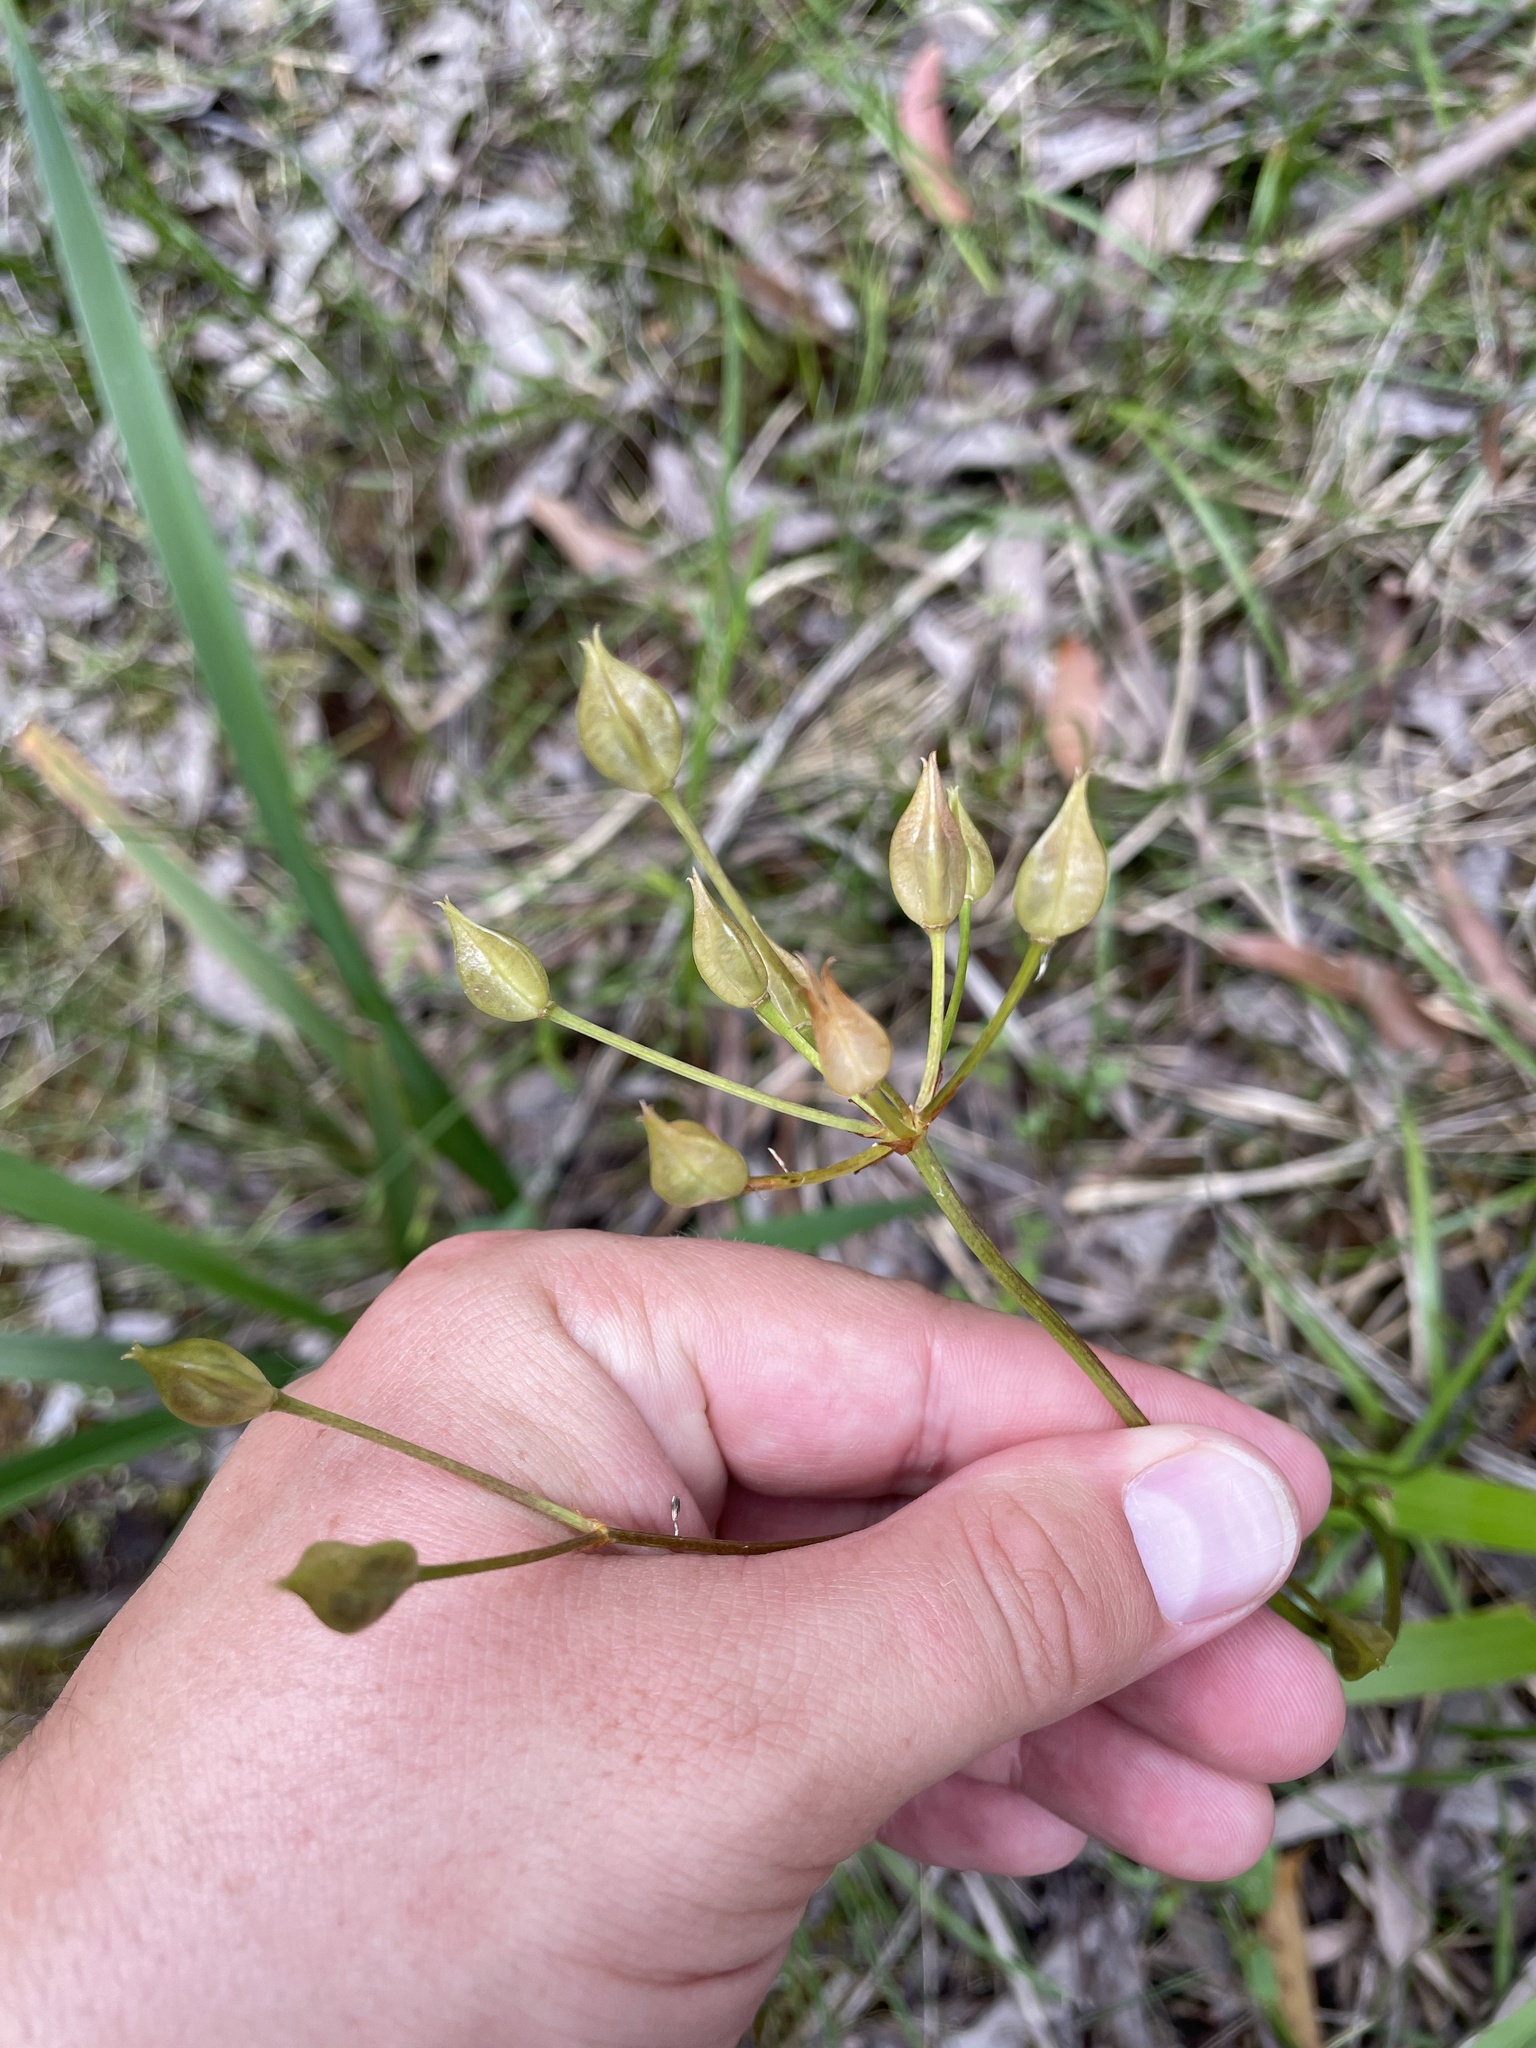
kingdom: Plantae
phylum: Tracheophyta
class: Liliopsida
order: Liliales
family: Colchicaceae
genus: Burchardia
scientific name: Burchardia umbellata
